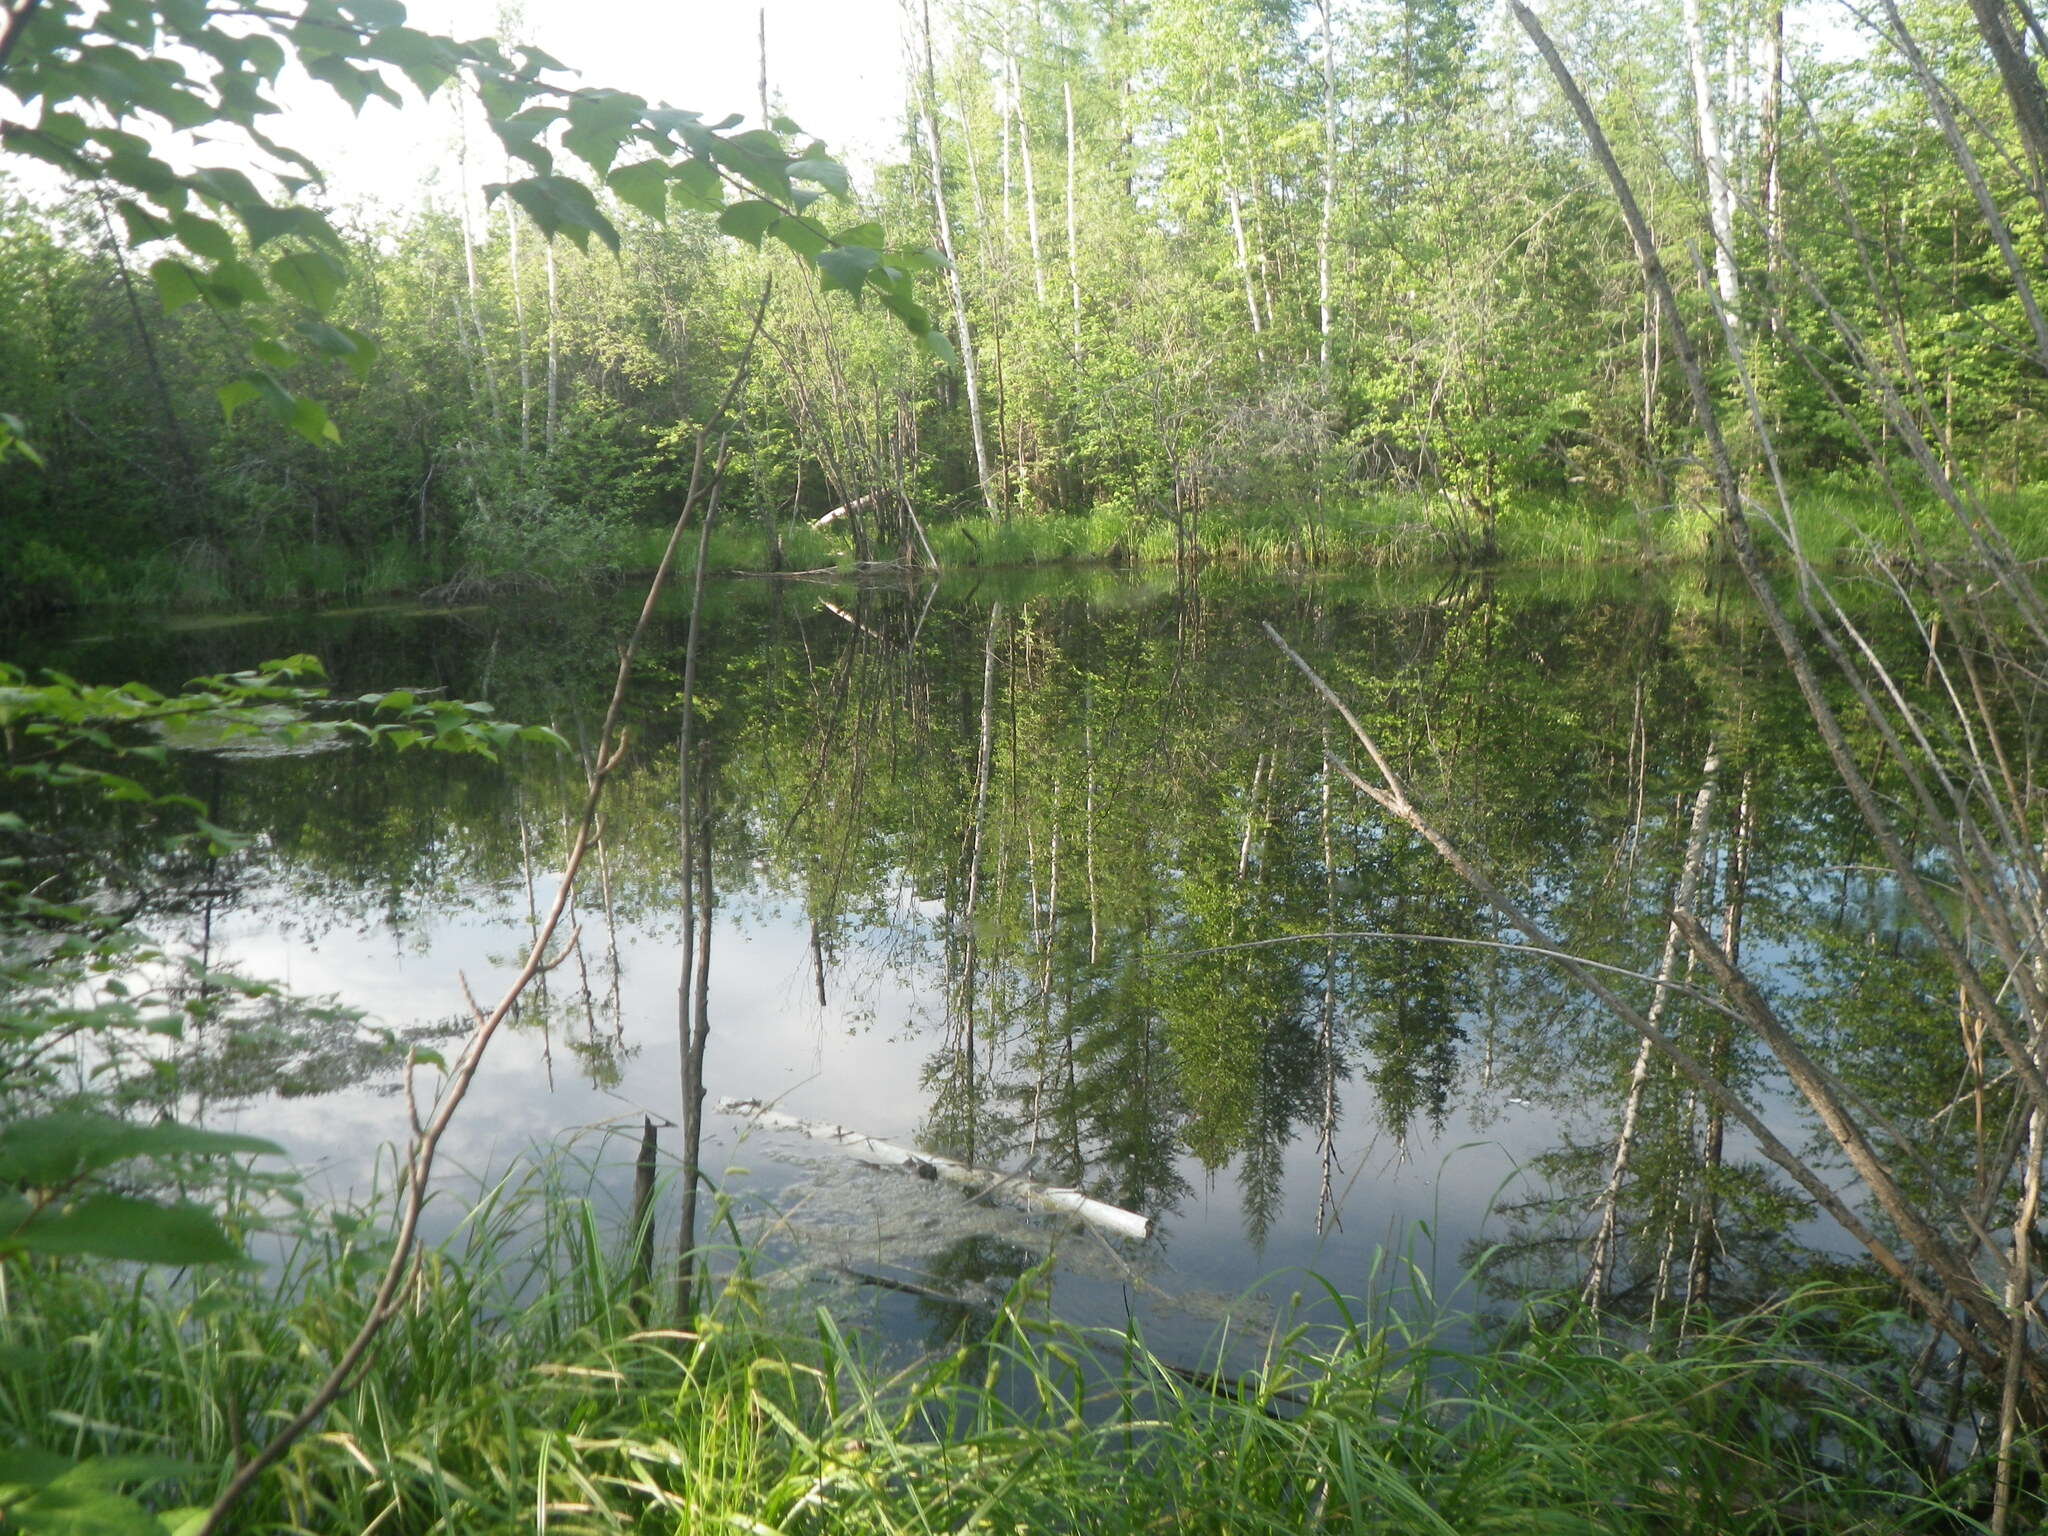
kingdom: Plantae
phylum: Tracheophyta
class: Pinopsida
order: Pinales
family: Pinaceae
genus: Larix
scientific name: Larix gmelinii
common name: Dahurian larch
